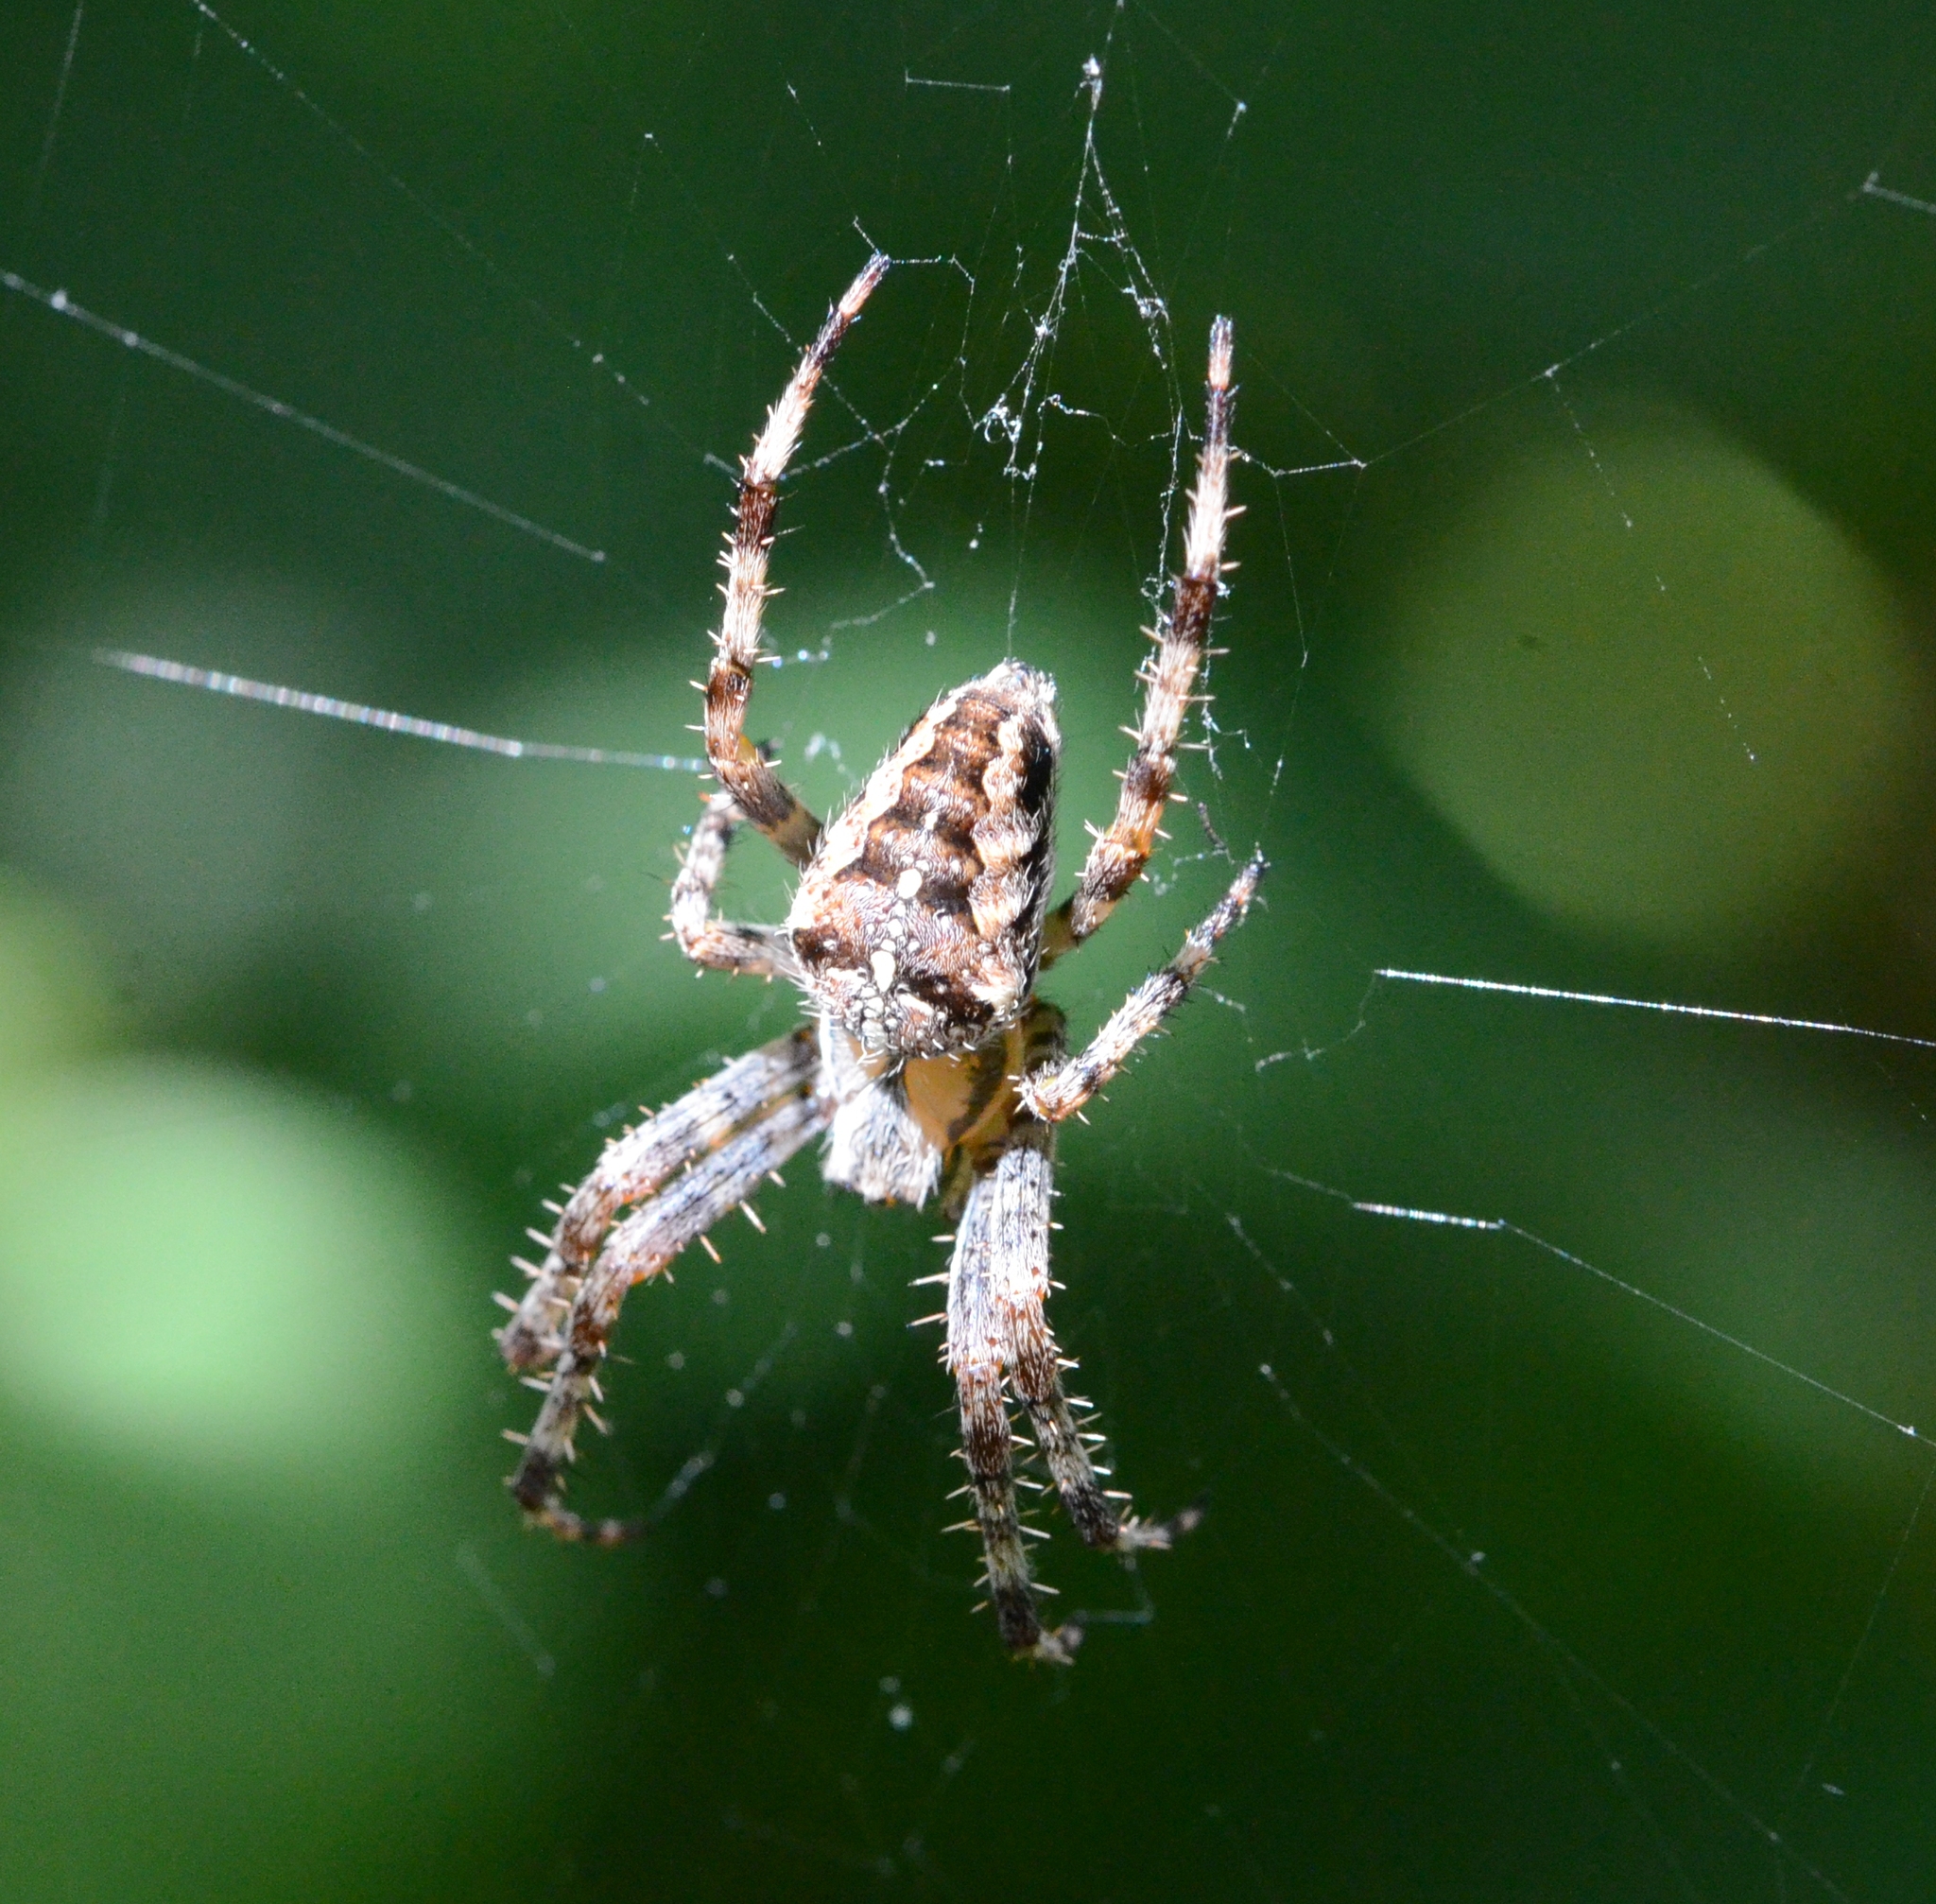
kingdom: Animalia
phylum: Arthropoda
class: Arachnida
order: Araneae
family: Araneidae
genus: Araneus
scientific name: Araneus diadematus
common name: Cross orbweaver
